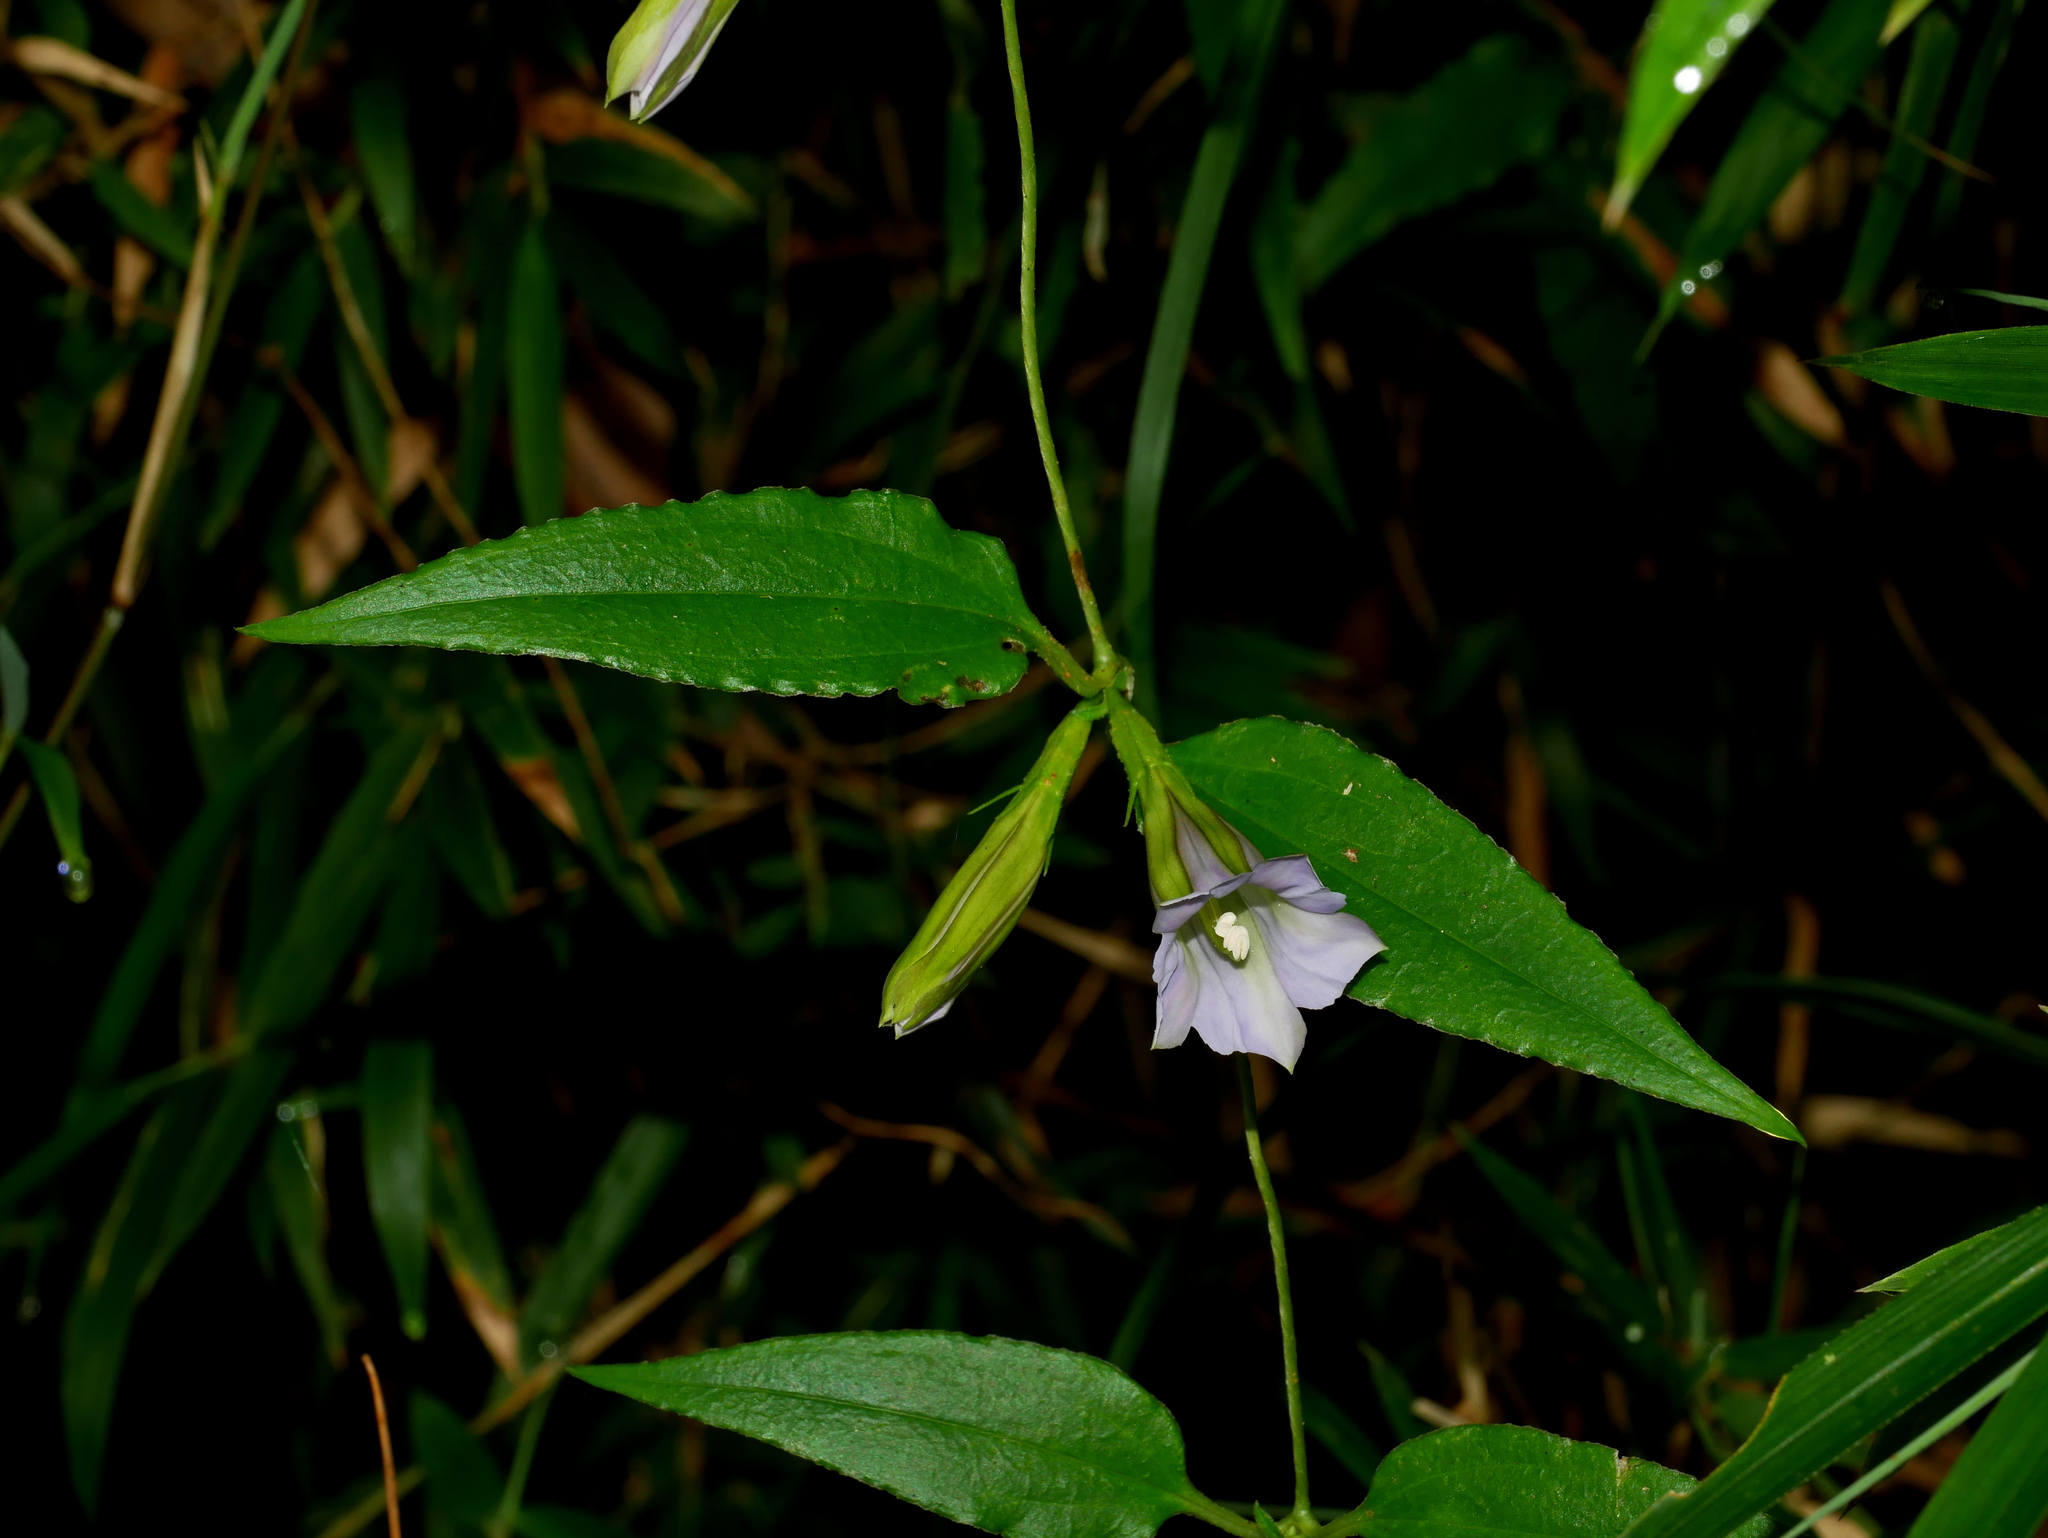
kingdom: Plantae
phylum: Tracheophyta
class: Magnoliopsida
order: Gentianales
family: Gentianaceae
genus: Tripterospermum
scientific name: Tripterospermum lanceolatum
